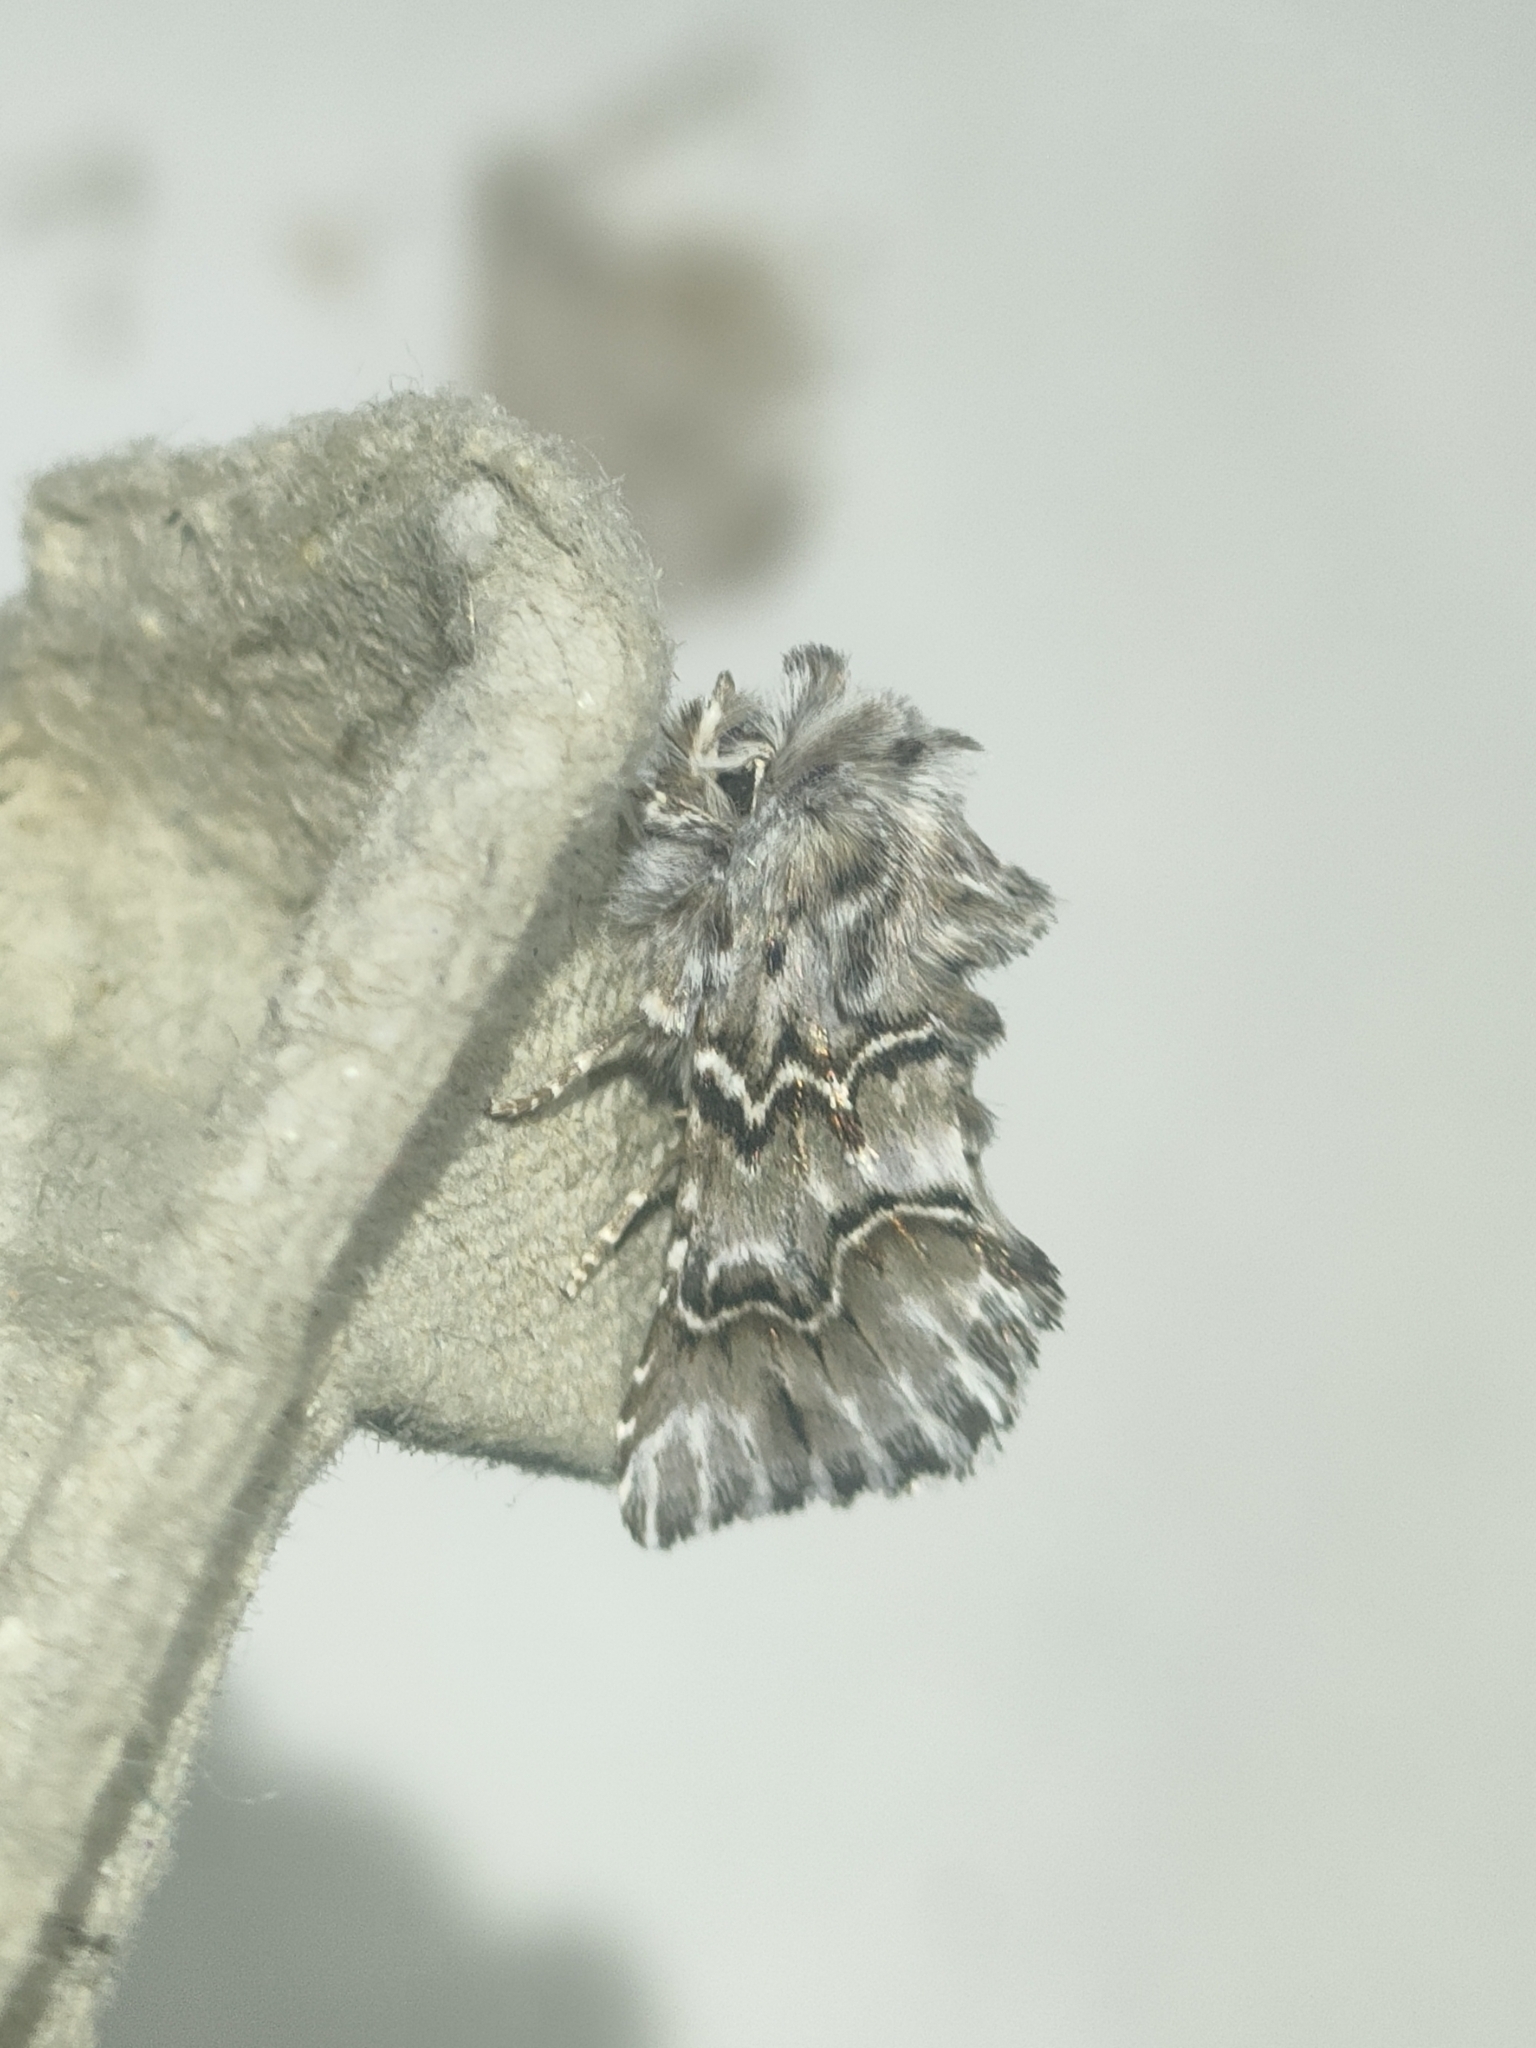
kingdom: Animalia
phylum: Arthropoda
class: Insecta
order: Lepidoptera
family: Noctuidae
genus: Cleonymia
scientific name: Cleonymia baetica
